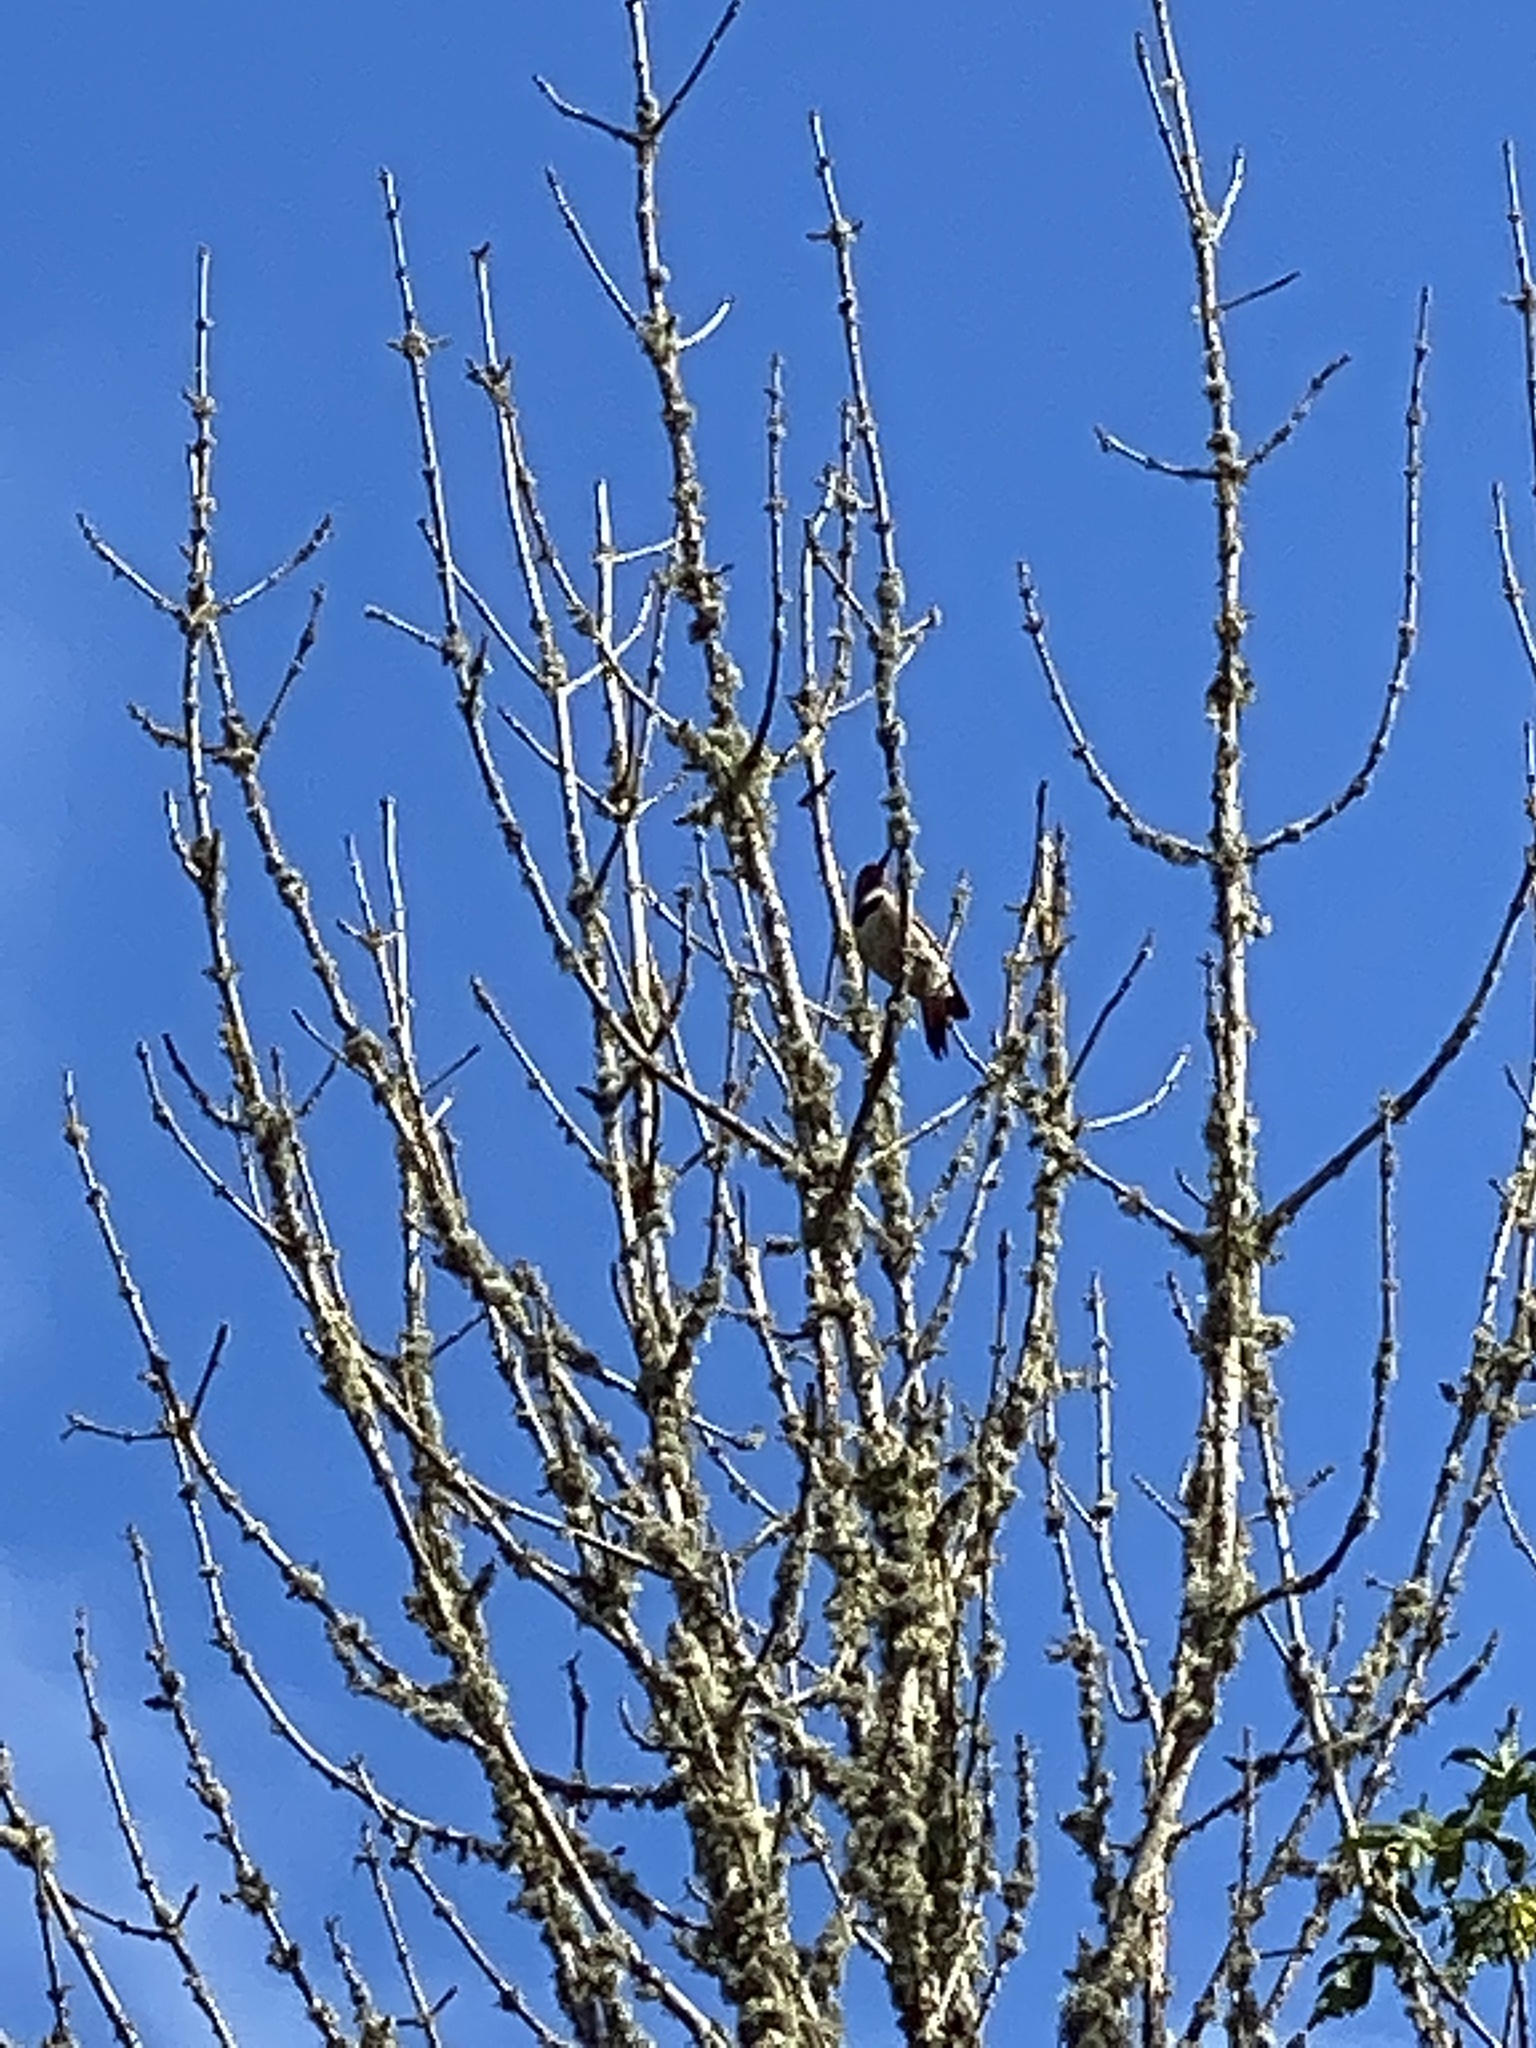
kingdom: Animalia
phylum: Chordata
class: Aves
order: Piciformes
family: Picidae
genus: Colaptes
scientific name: Colaptes auratus
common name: Northern flicker
